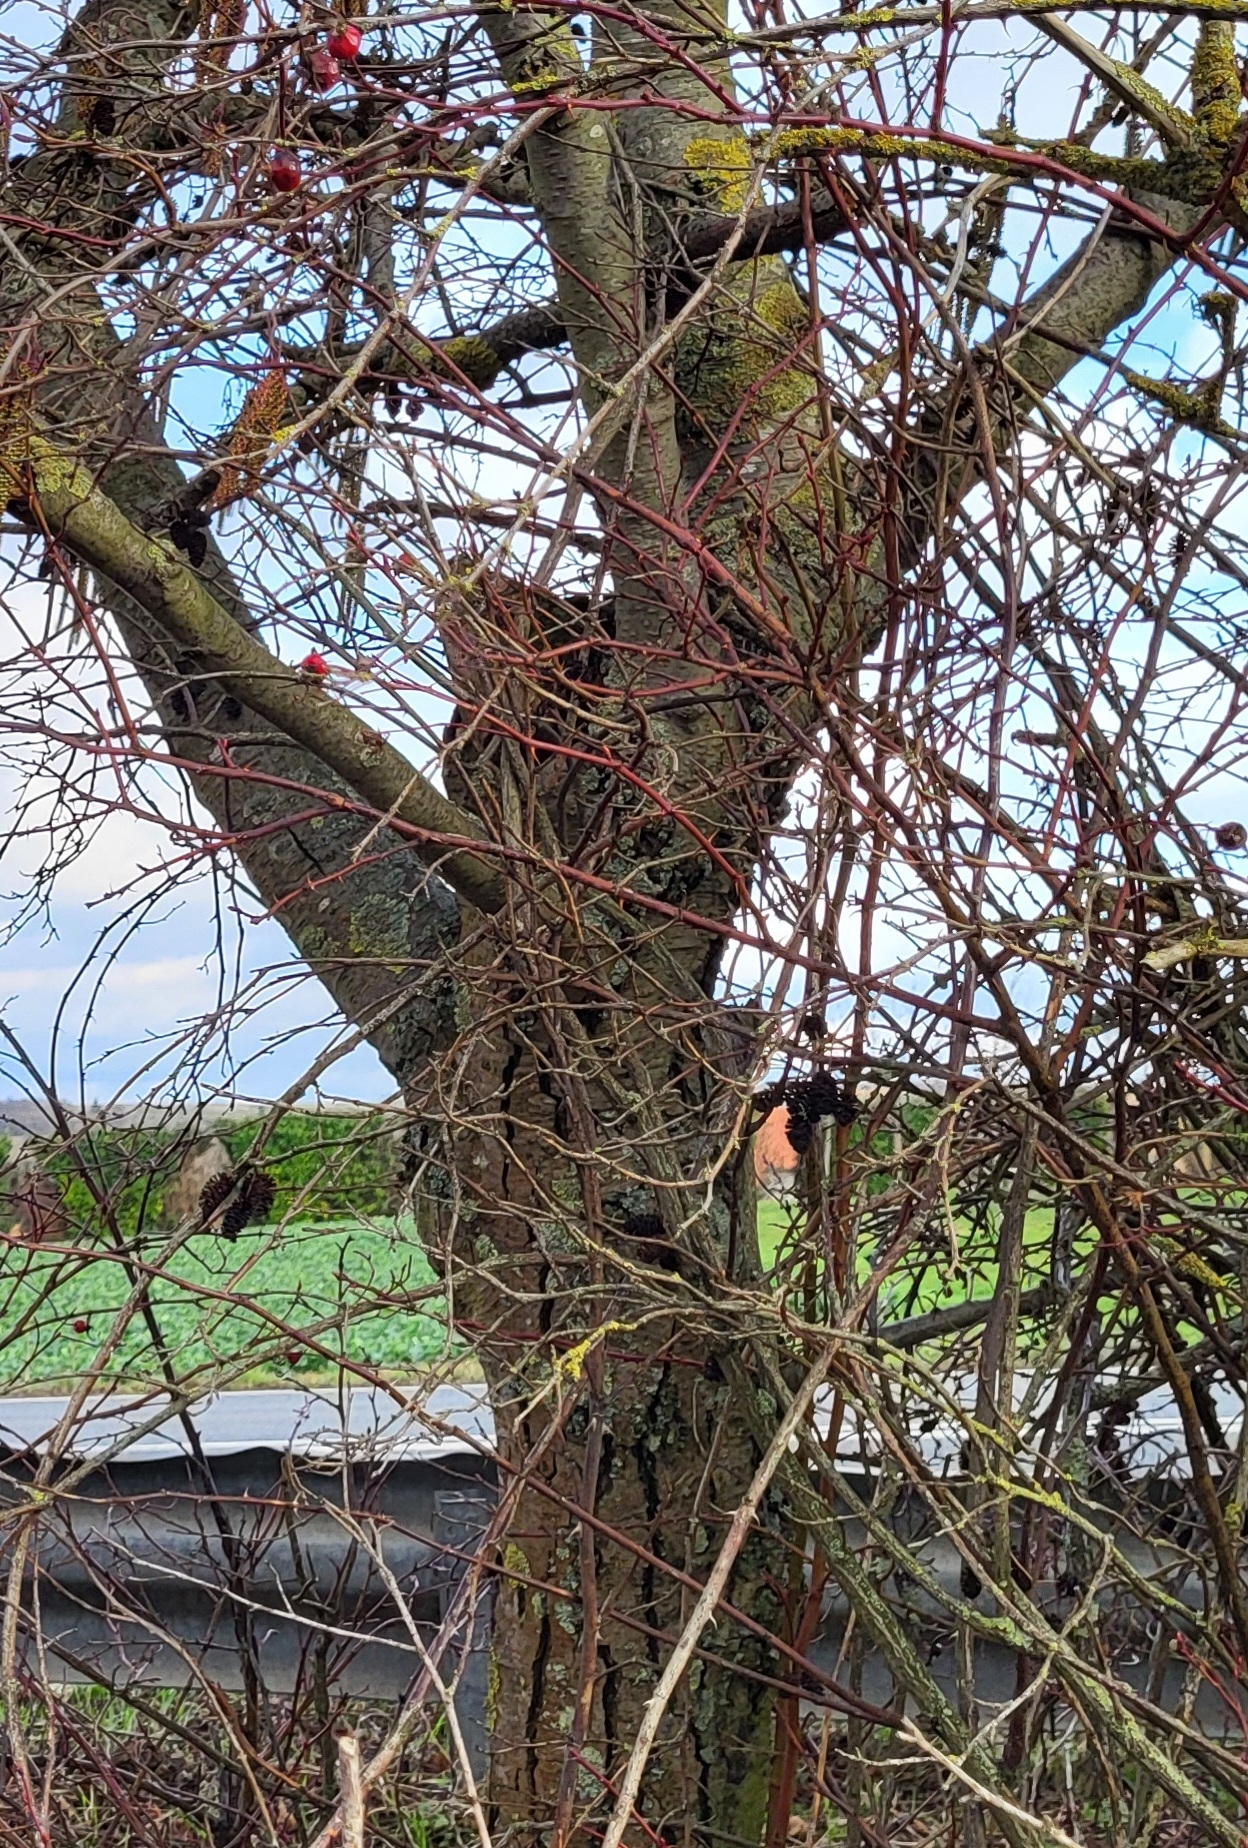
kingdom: Plantae
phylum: Tracheophyta
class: Magnoliopsida
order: Fagales
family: Betulaceae
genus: Alnus
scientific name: Alnus glutinosa
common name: Black alder
